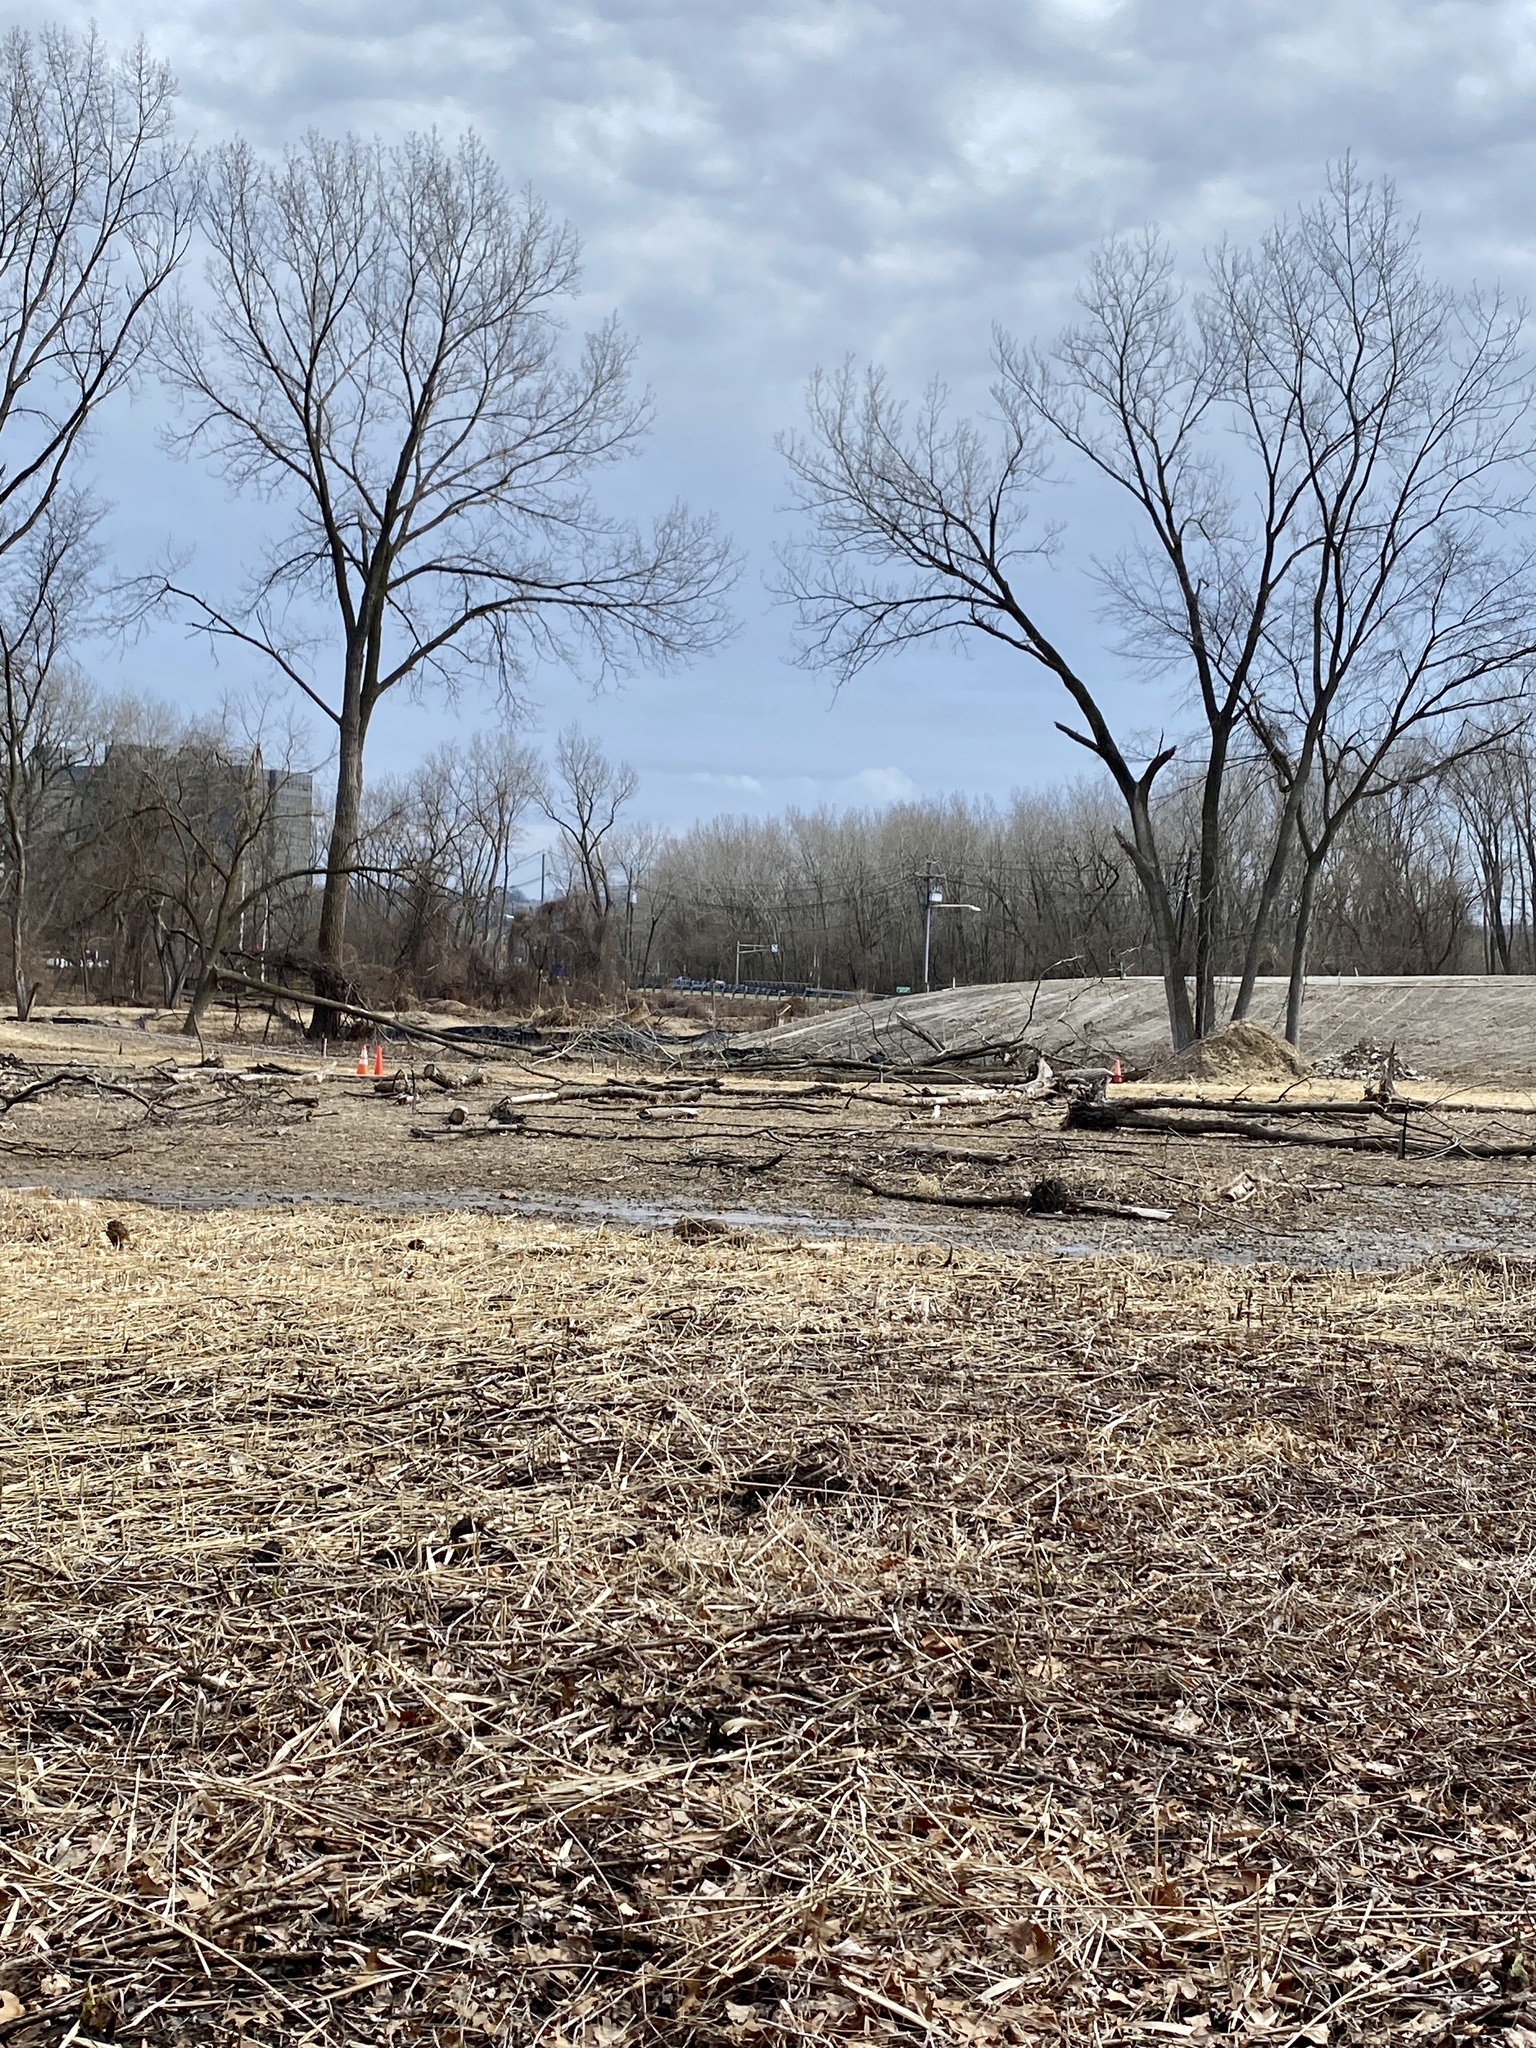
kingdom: Plantae
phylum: Tracheophyta
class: Liliopsida
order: Alismatales
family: Araceae
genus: Symplocarpus
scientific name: Symplocarpus foetidus
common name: Eastern skunk cabbage
